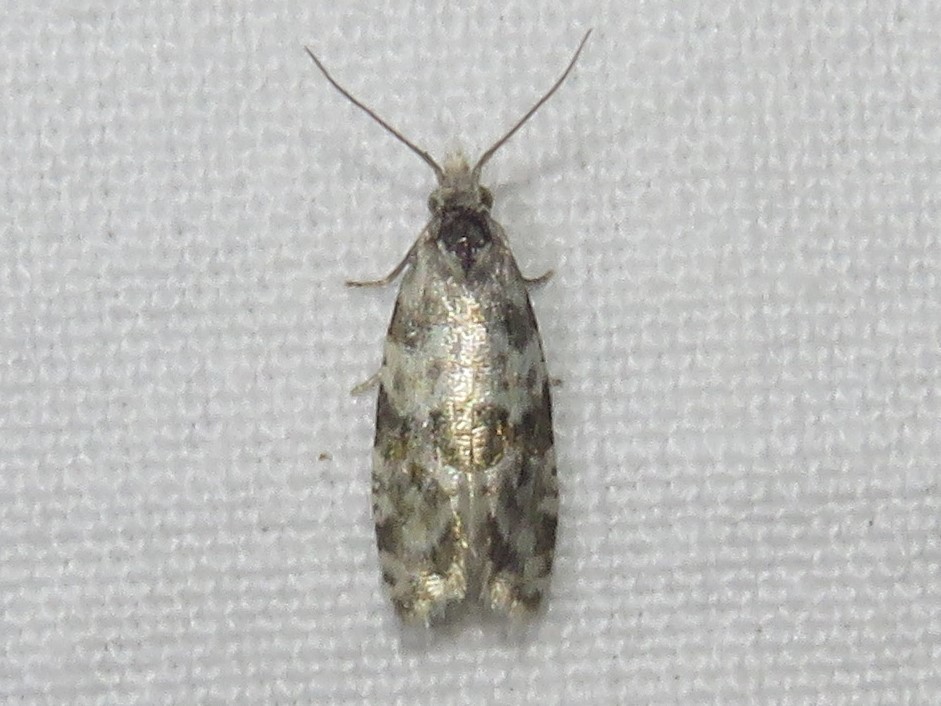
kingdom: Animalia
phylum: Arthropoda
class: Insecta
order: Lepidoptera
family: Tortricidae
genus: Aethes
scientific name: Aethes argentilimitana
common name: Silver-bordered aethes
